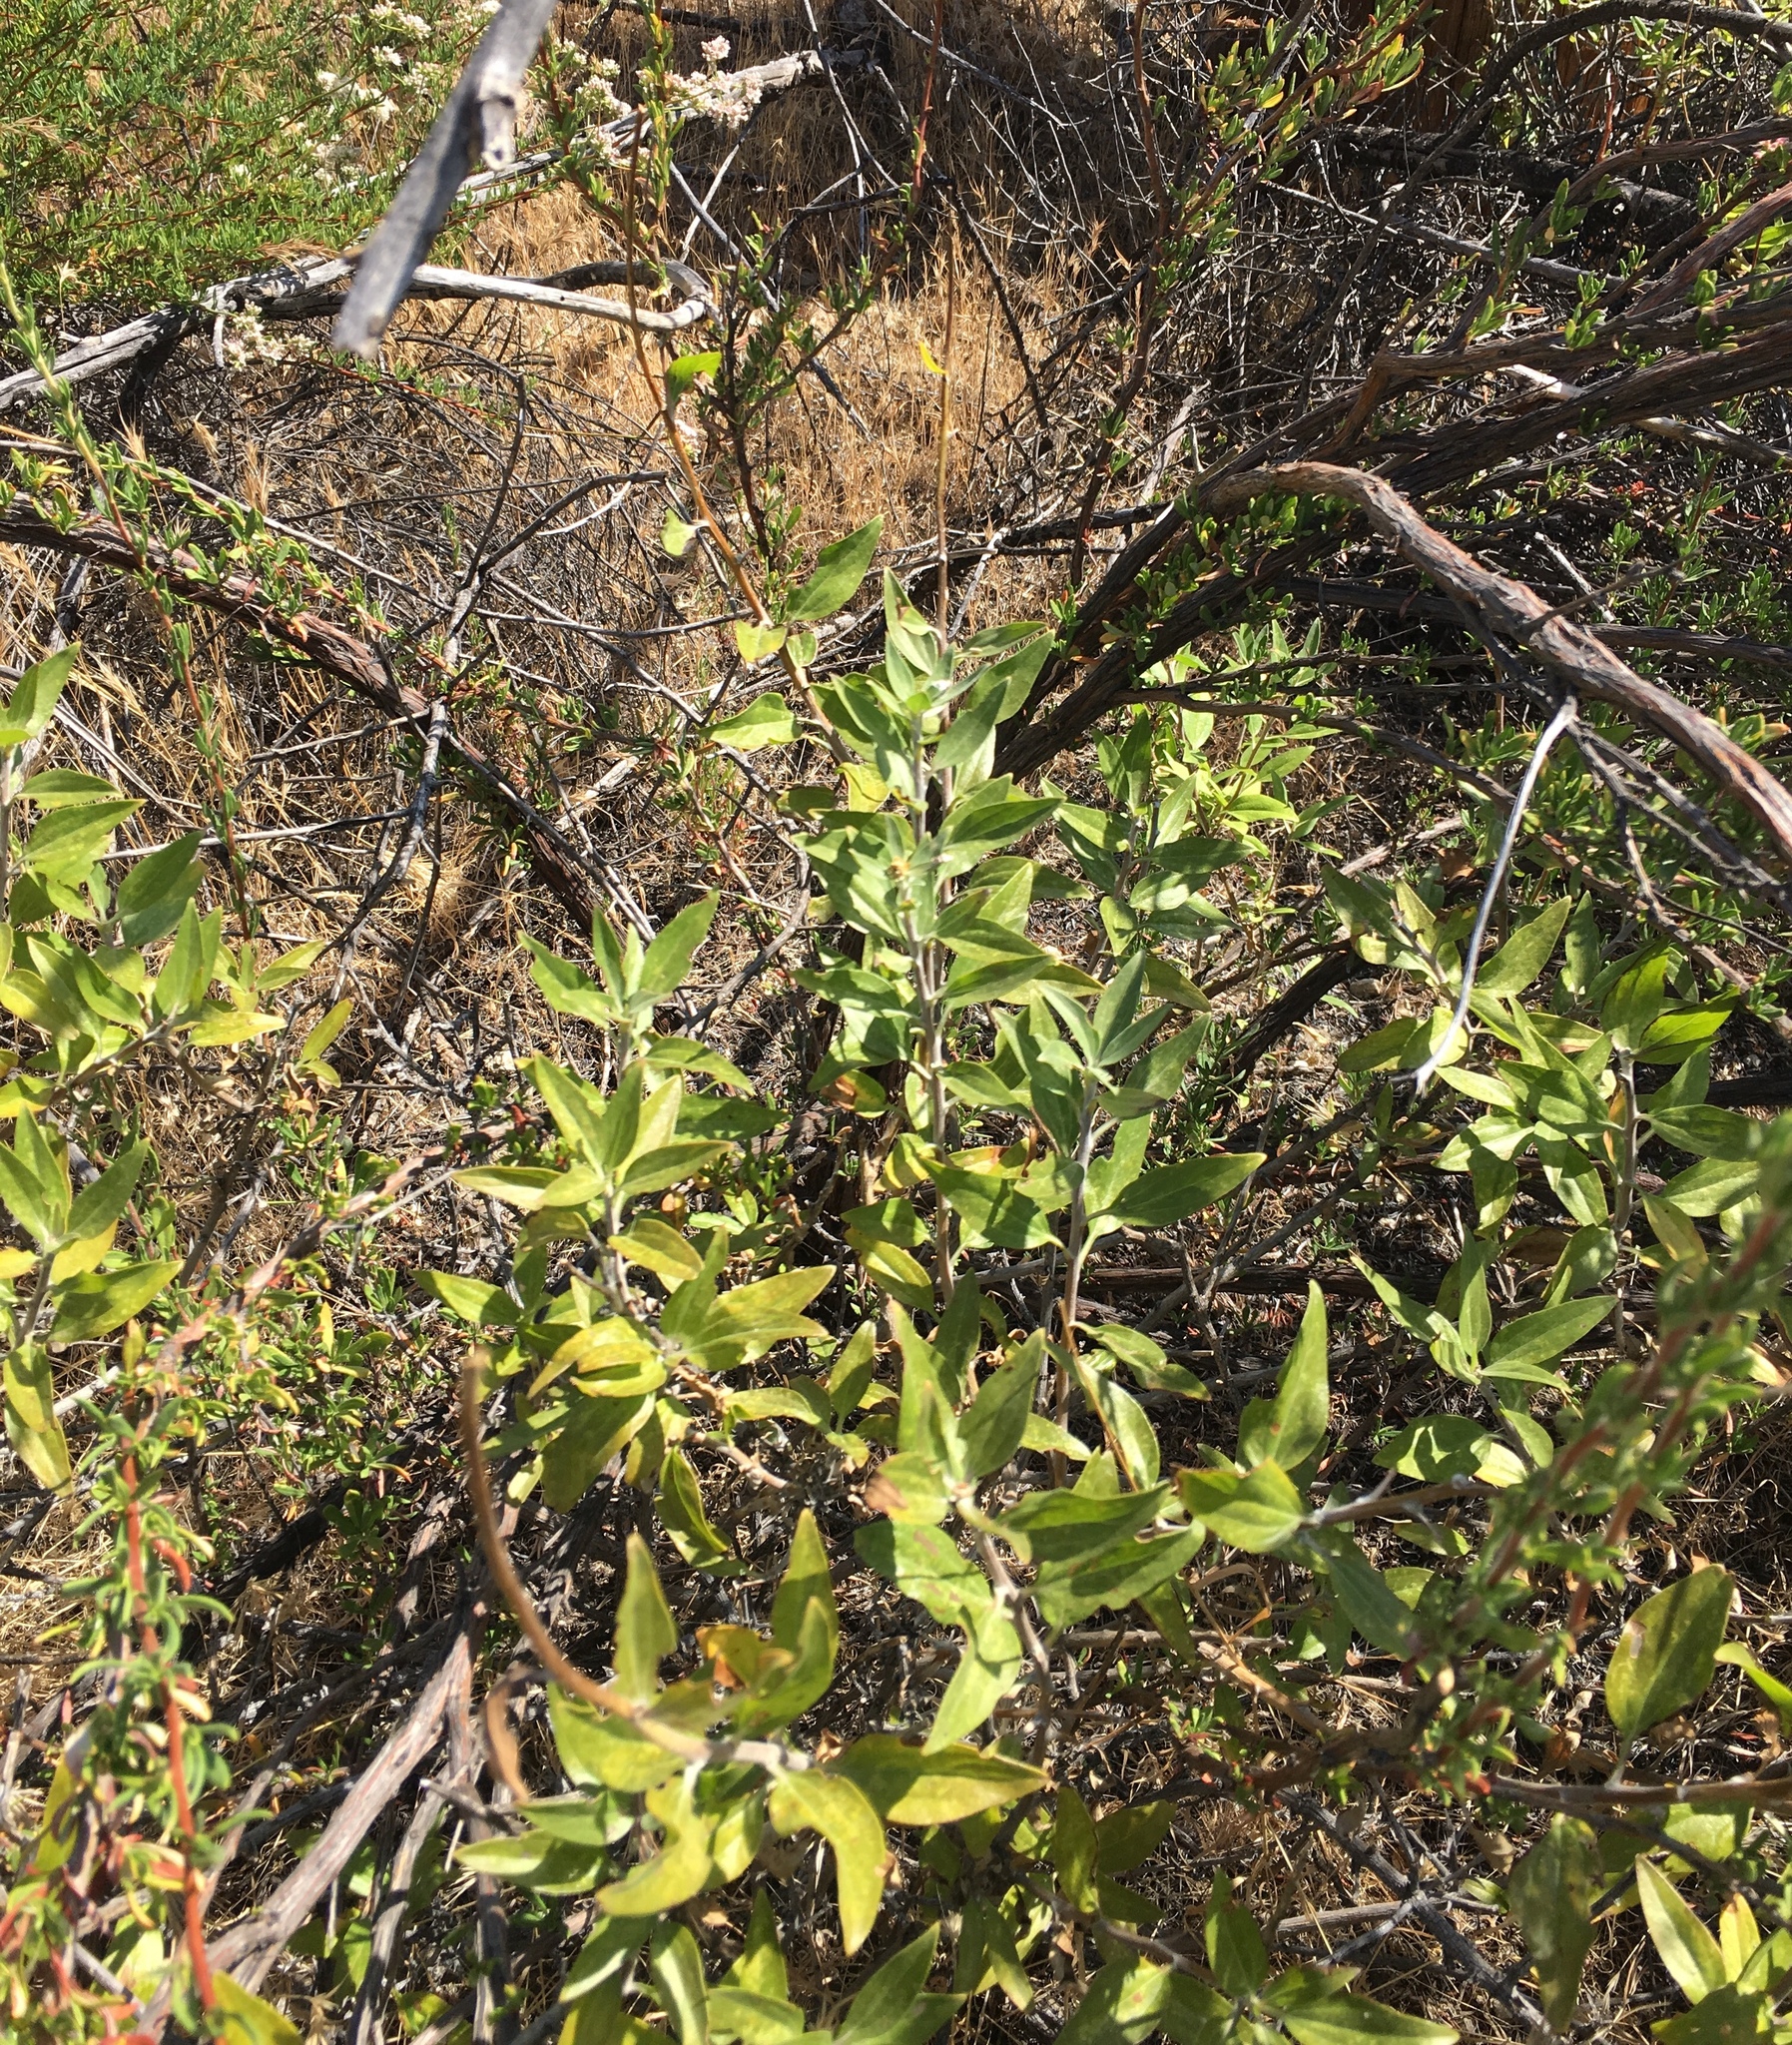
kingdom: Plantae
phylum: Tracheophyta
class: Magnoliopsida
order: Asterales
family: Asteraceae
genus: Encelia
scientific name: Encelia californica
